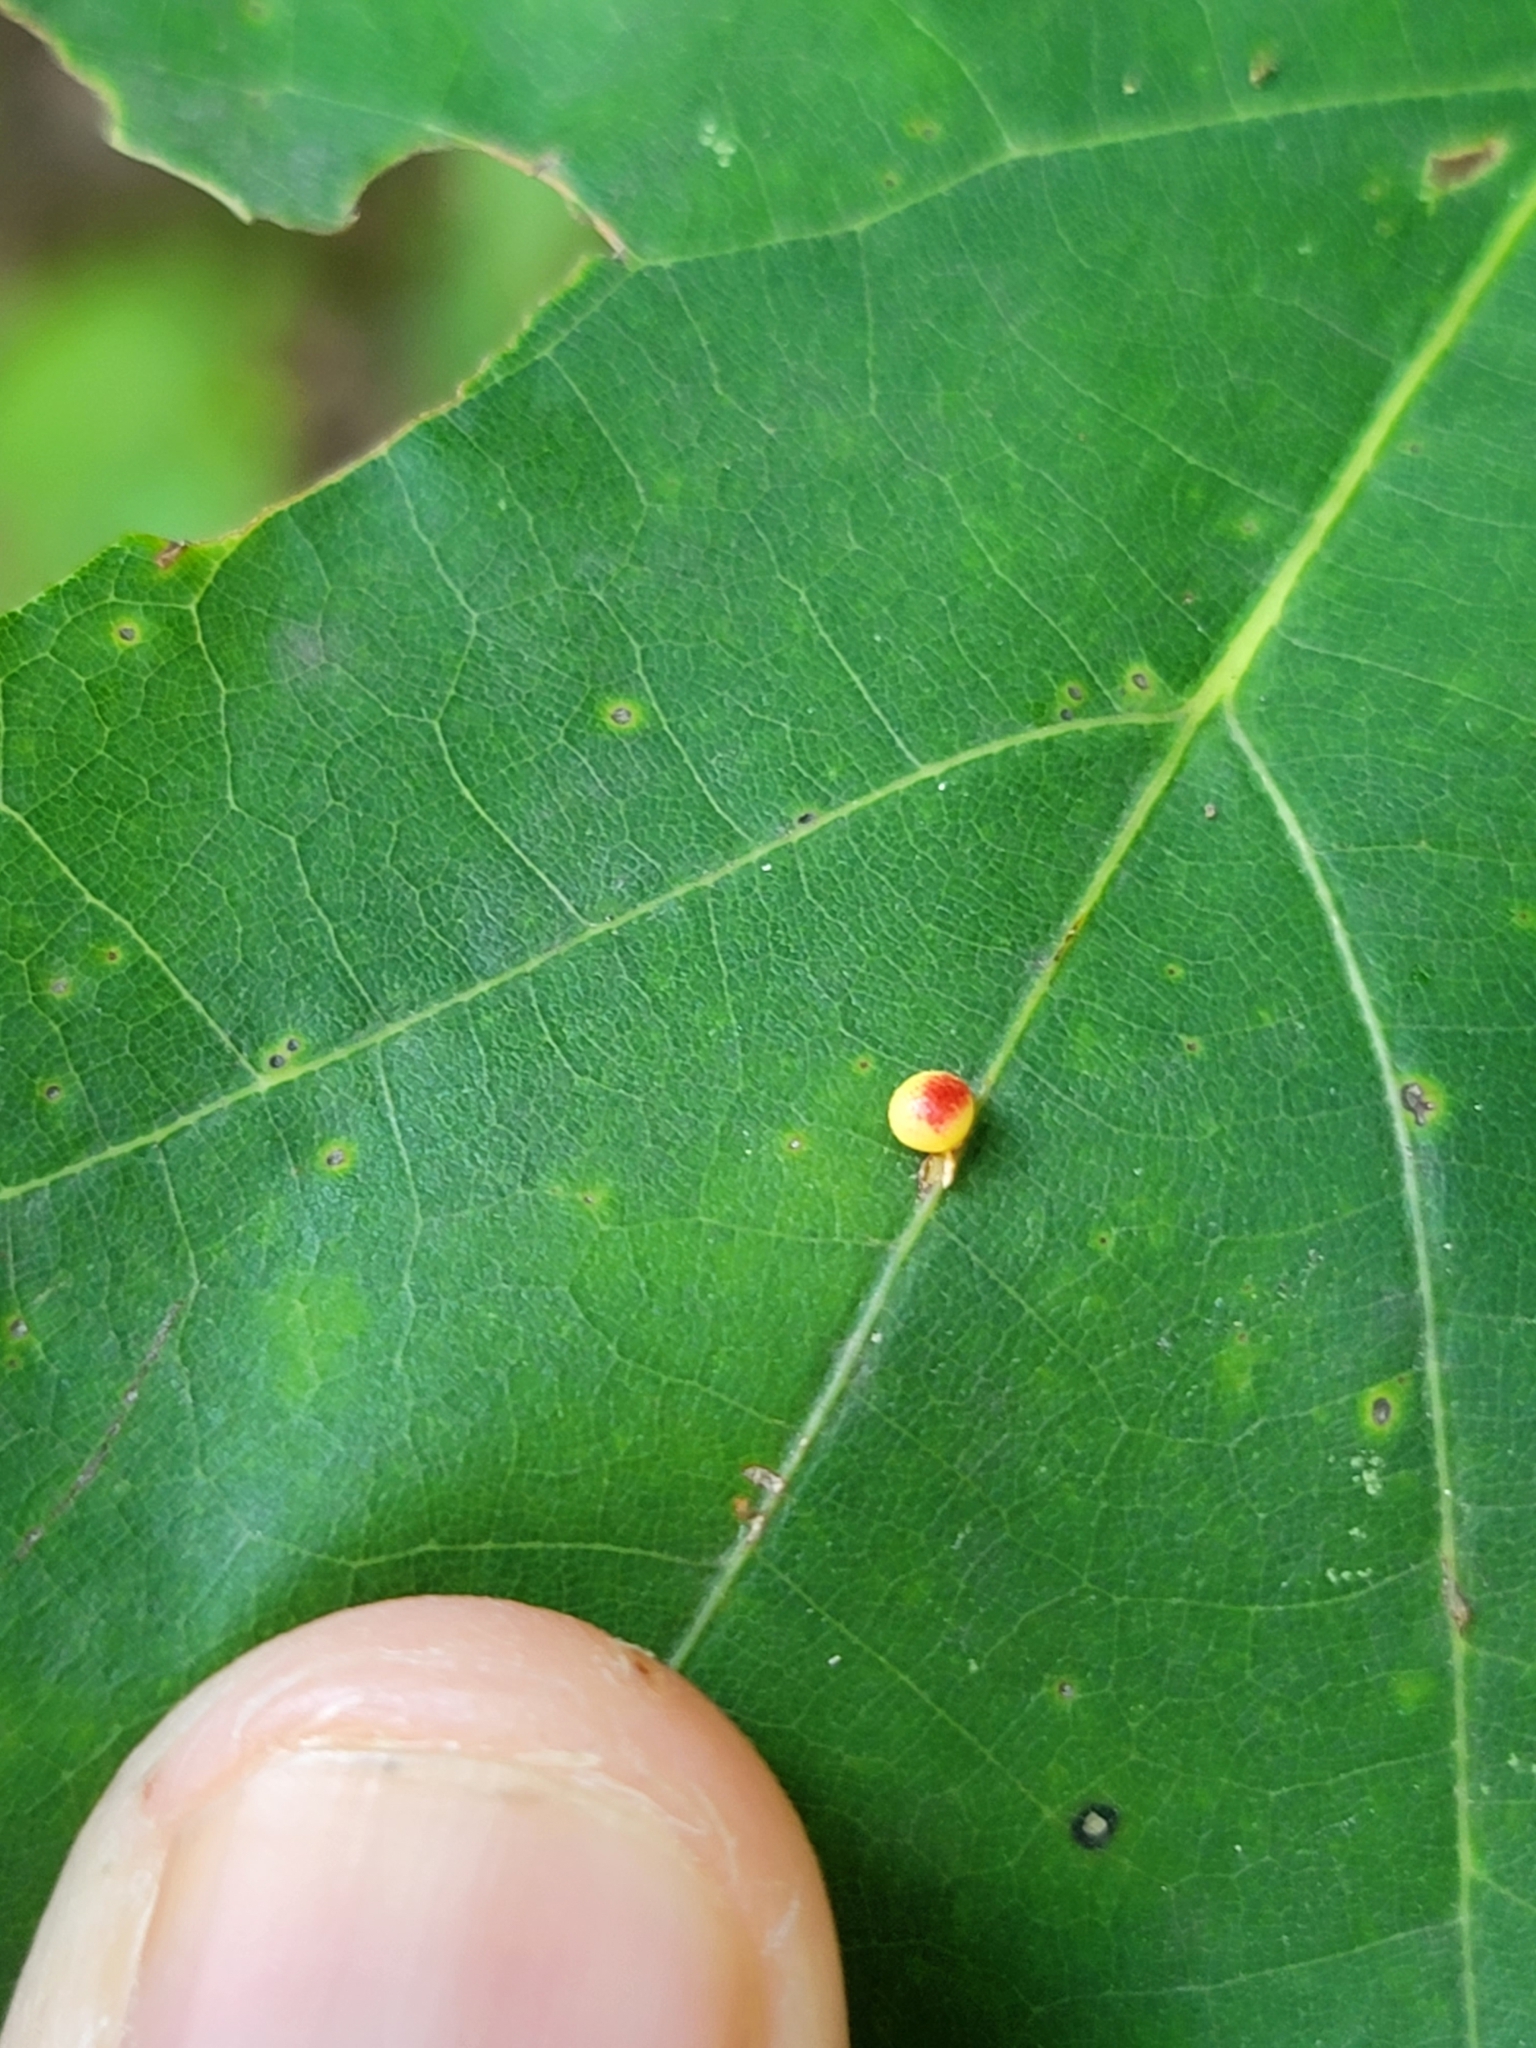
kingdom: Animalia
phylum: Arthropoda
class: Insecta
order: Hymenoptera
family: Cynipidae
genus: Zopheroteras
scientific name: Zopheroteras
